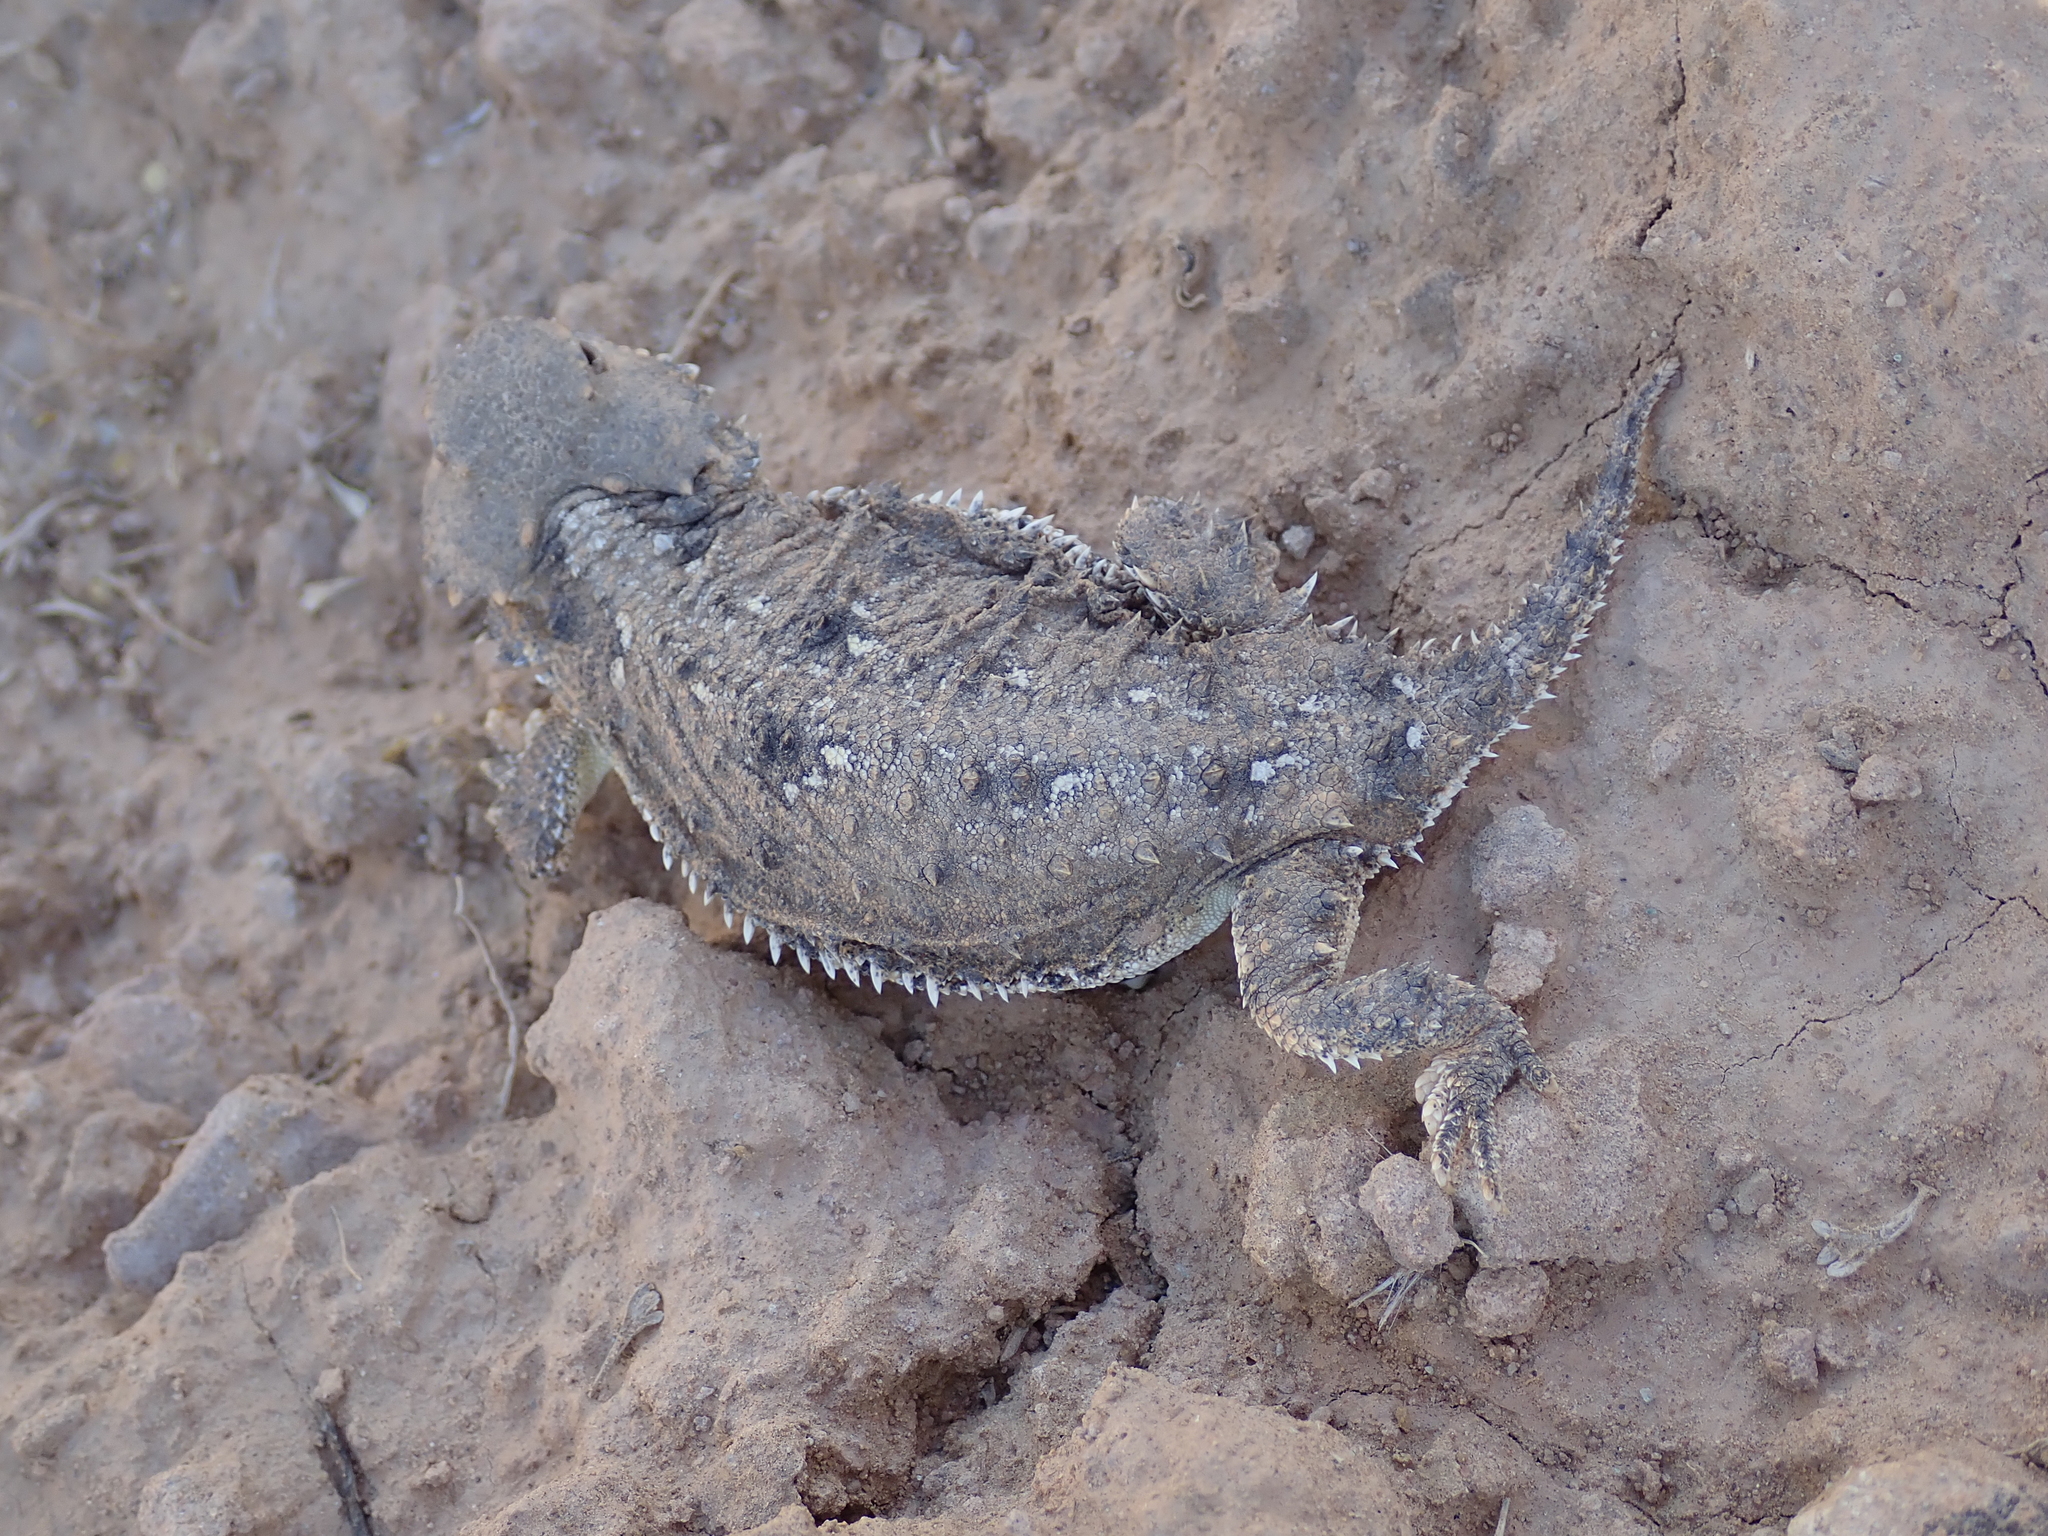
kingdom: Animalia
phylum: Chordata
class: Squamata
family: Phrynosomatidae
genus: Phrynosoma
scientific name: Phrynosoma hernandesi
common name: Greater short-horned lizard
